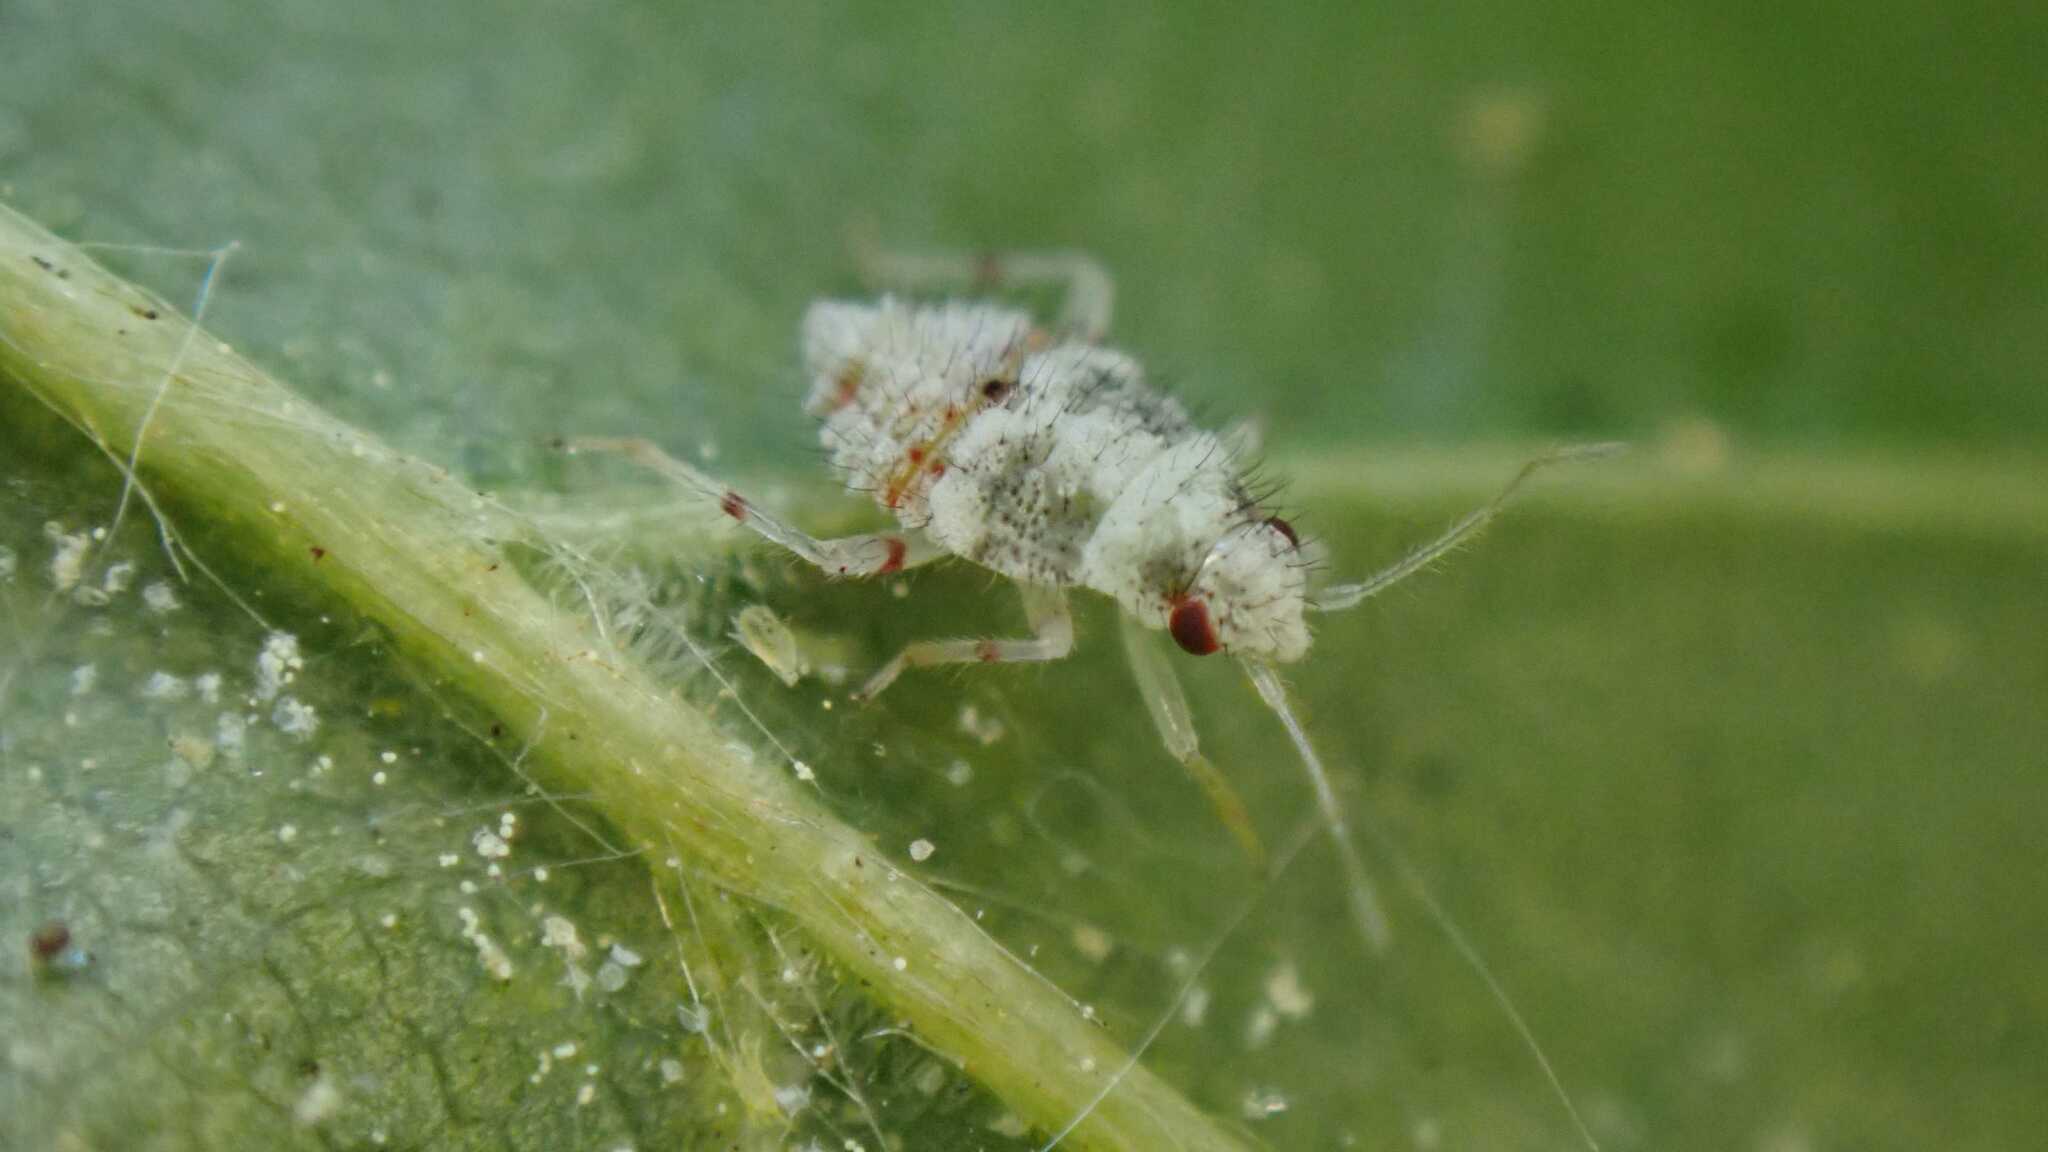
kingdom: Animalia
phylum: Arthropoda
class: Insecta
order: Hemiptera
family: Miridae
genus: Deraeocoris
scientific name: Deraeocoris lutescens
